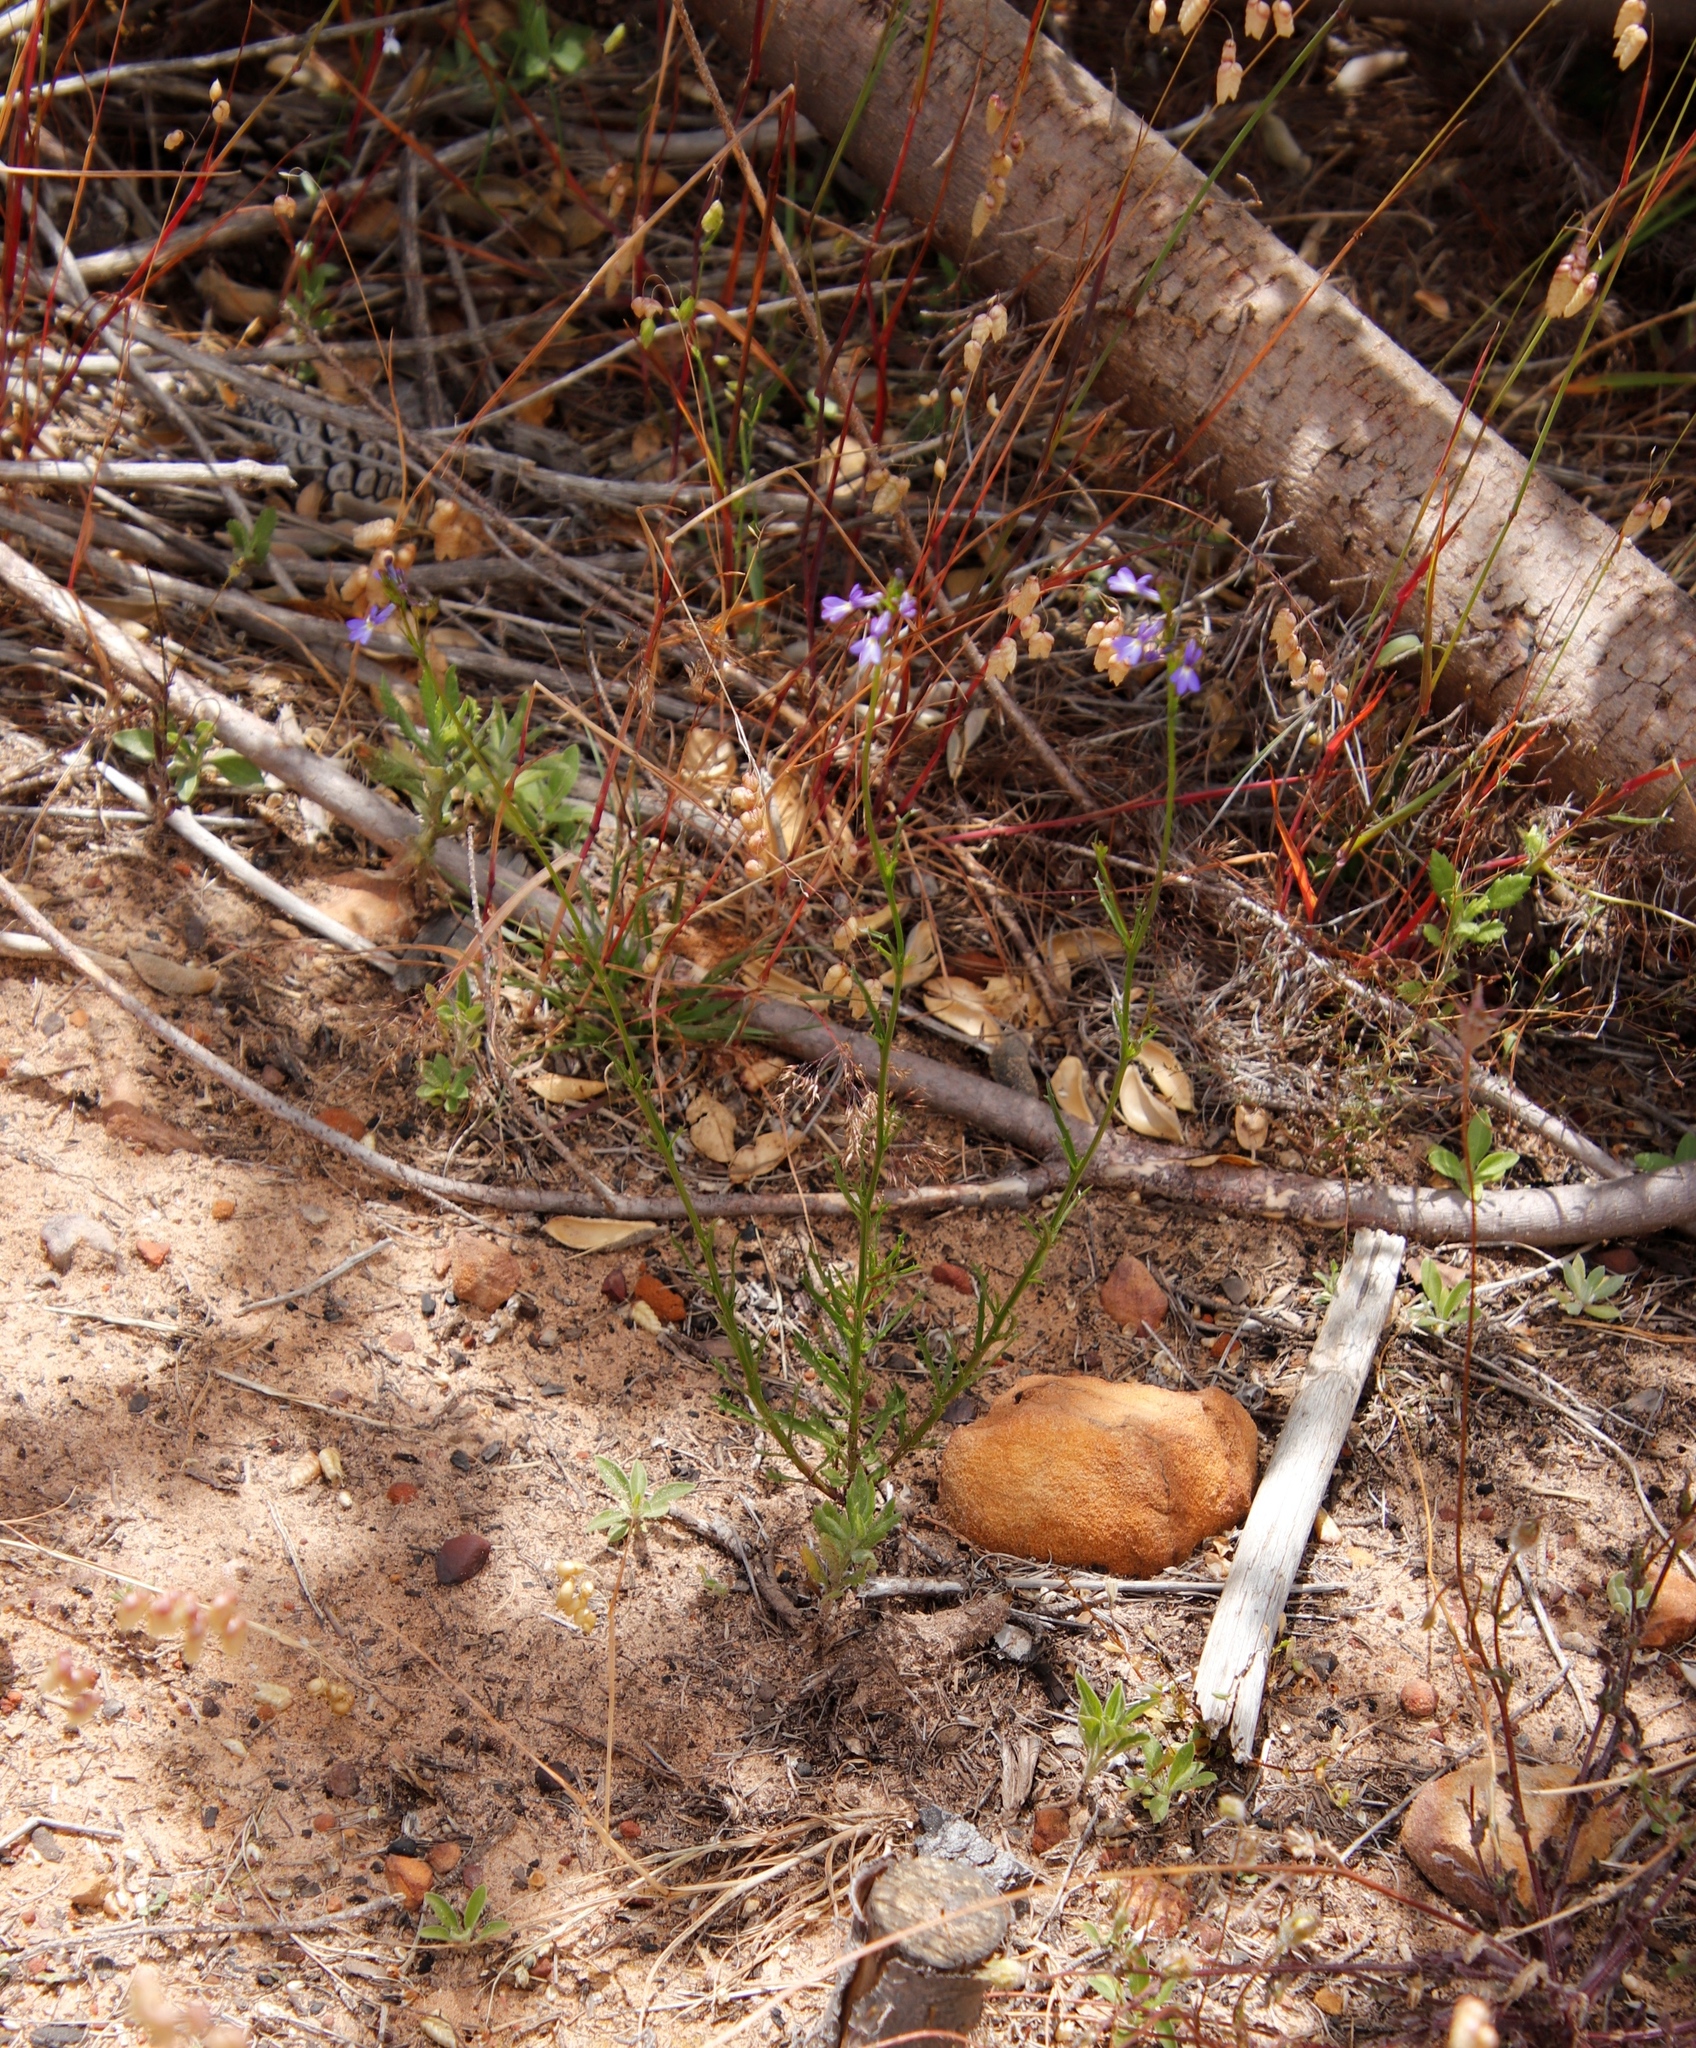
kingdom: Plantae
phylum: Tracheophyta
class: Magnoliopsida
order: Asterales
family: Campanulaceae
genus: Lobelia
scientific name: Lobelia comosa
